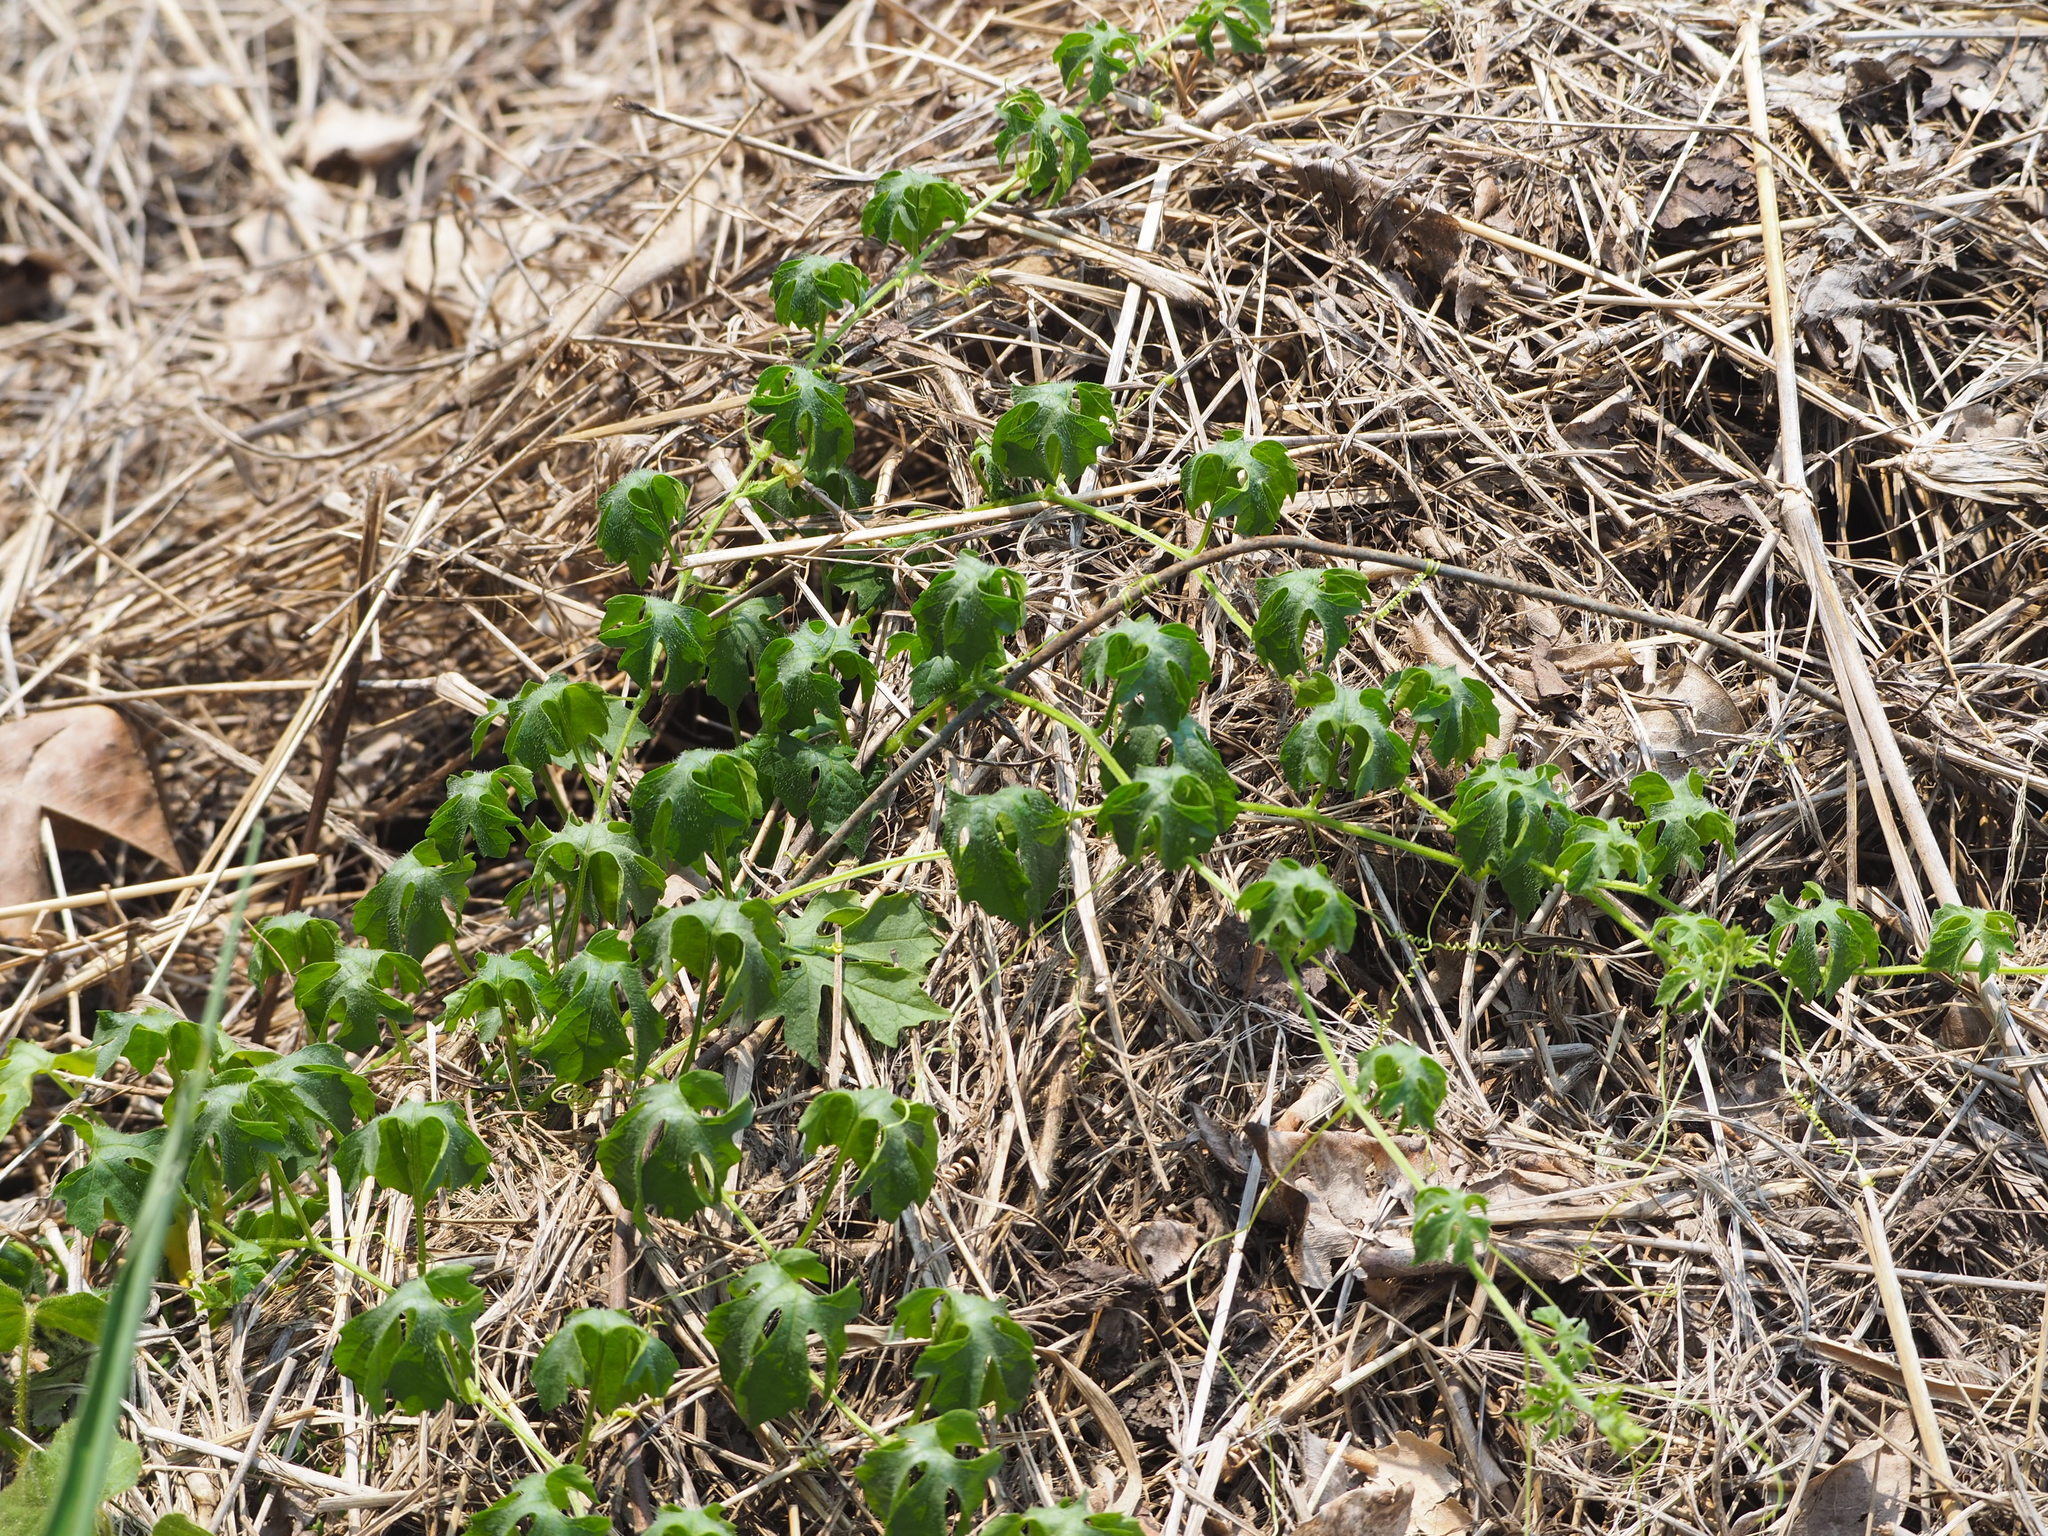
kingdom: Plantae
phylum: Tracheophyta
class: Magnoliopsida
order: Cucurbitales
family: Cucurbitaceae
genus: Momordica
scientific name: Momordica charantia
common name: Balsampear
